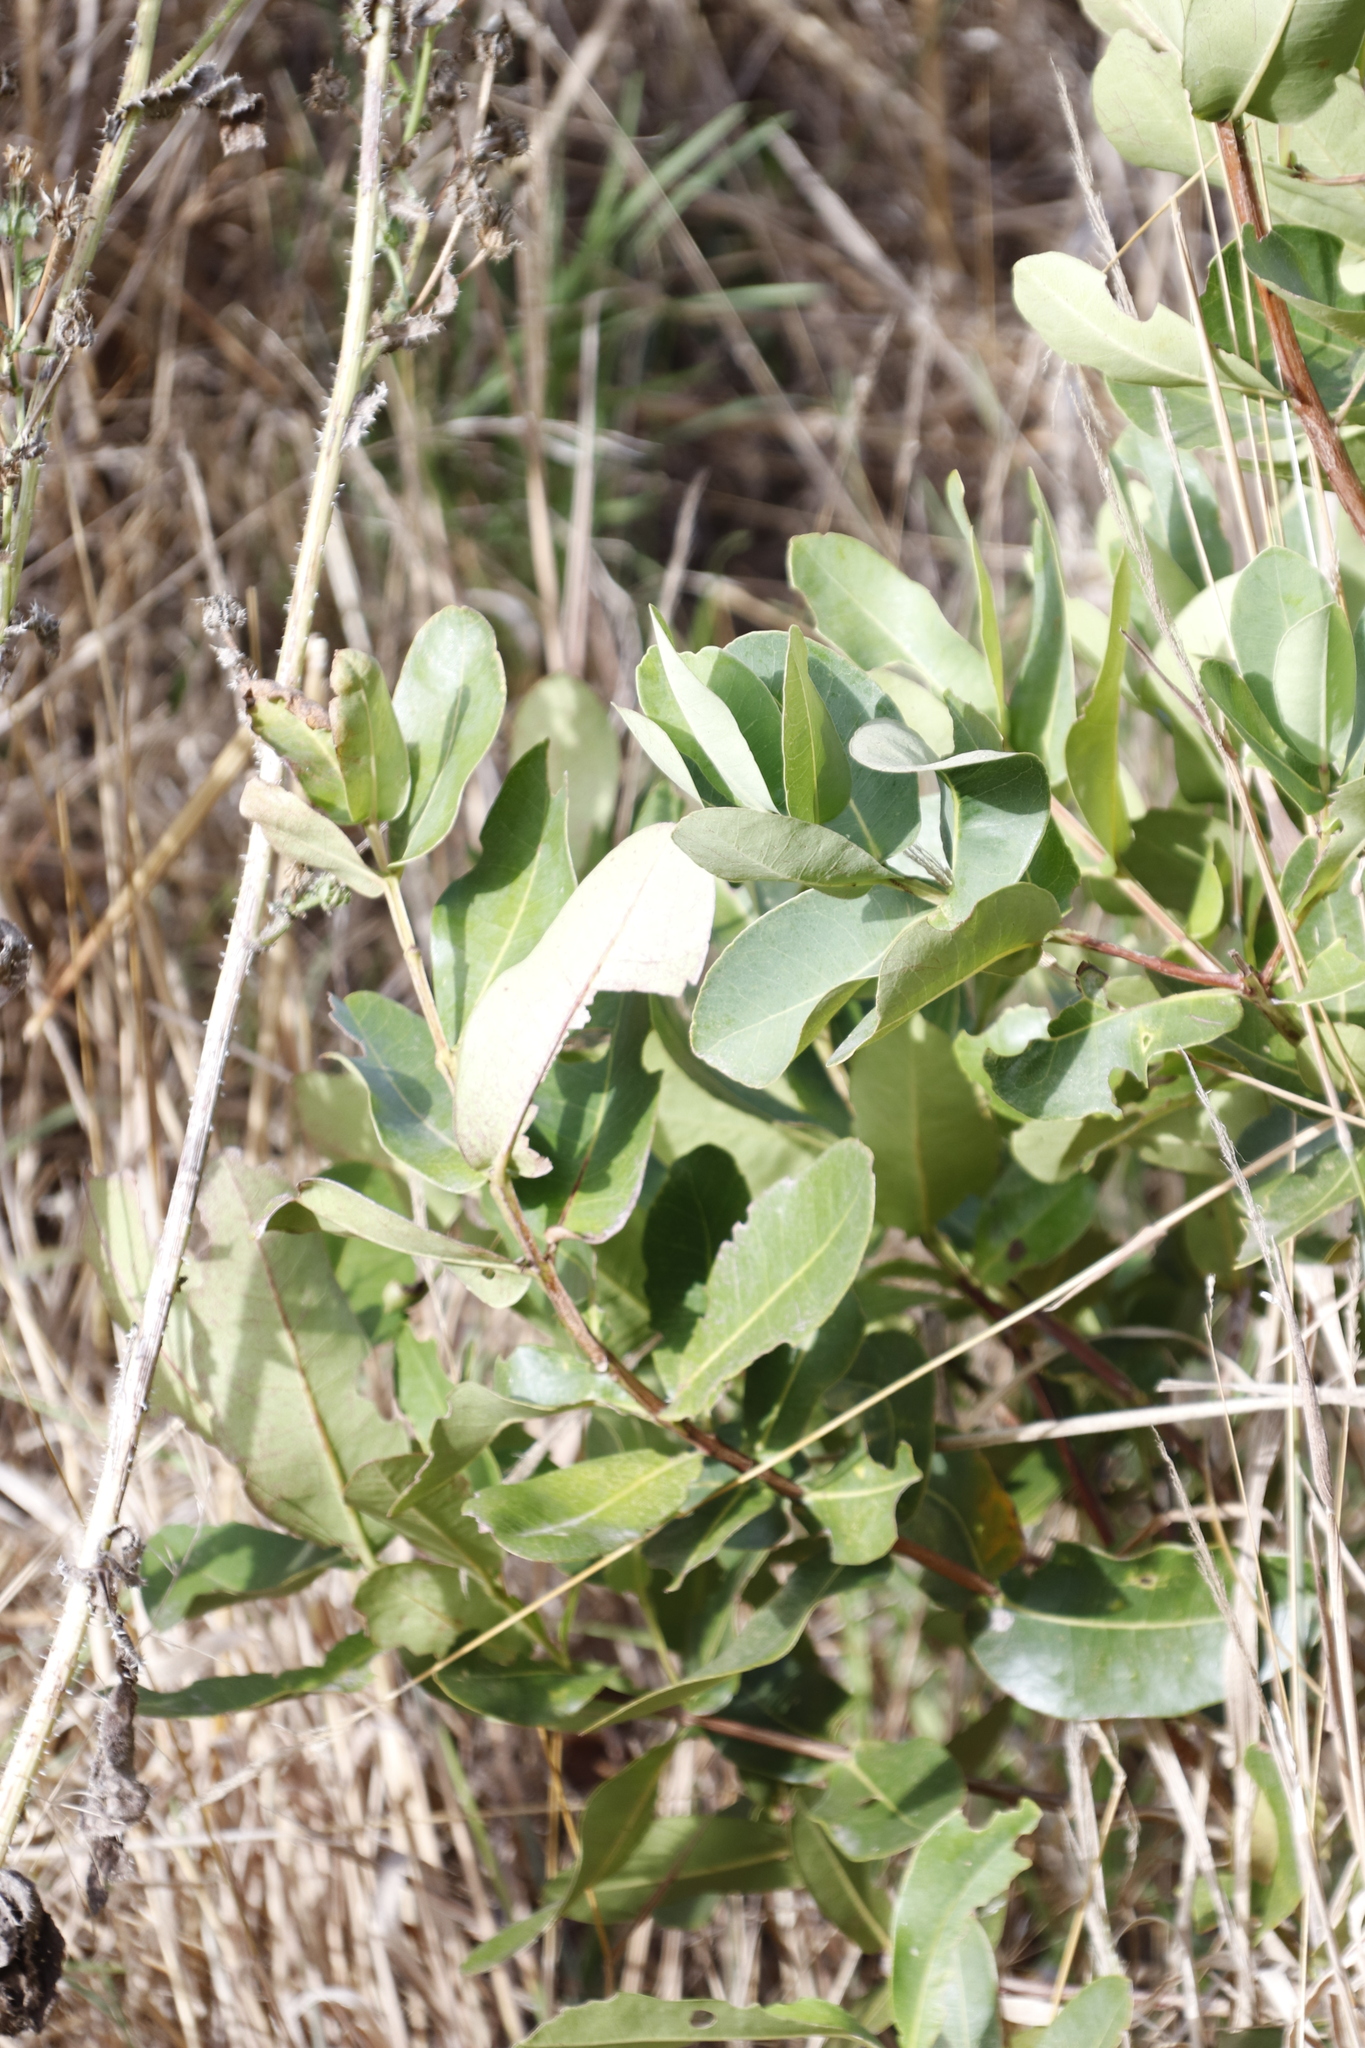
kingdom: Plantae
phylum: Tracheophyta
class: Magnoliopsida
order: Myrtales
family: Myrtaceae
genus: Syzygium
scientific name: Syzygium cordatum
